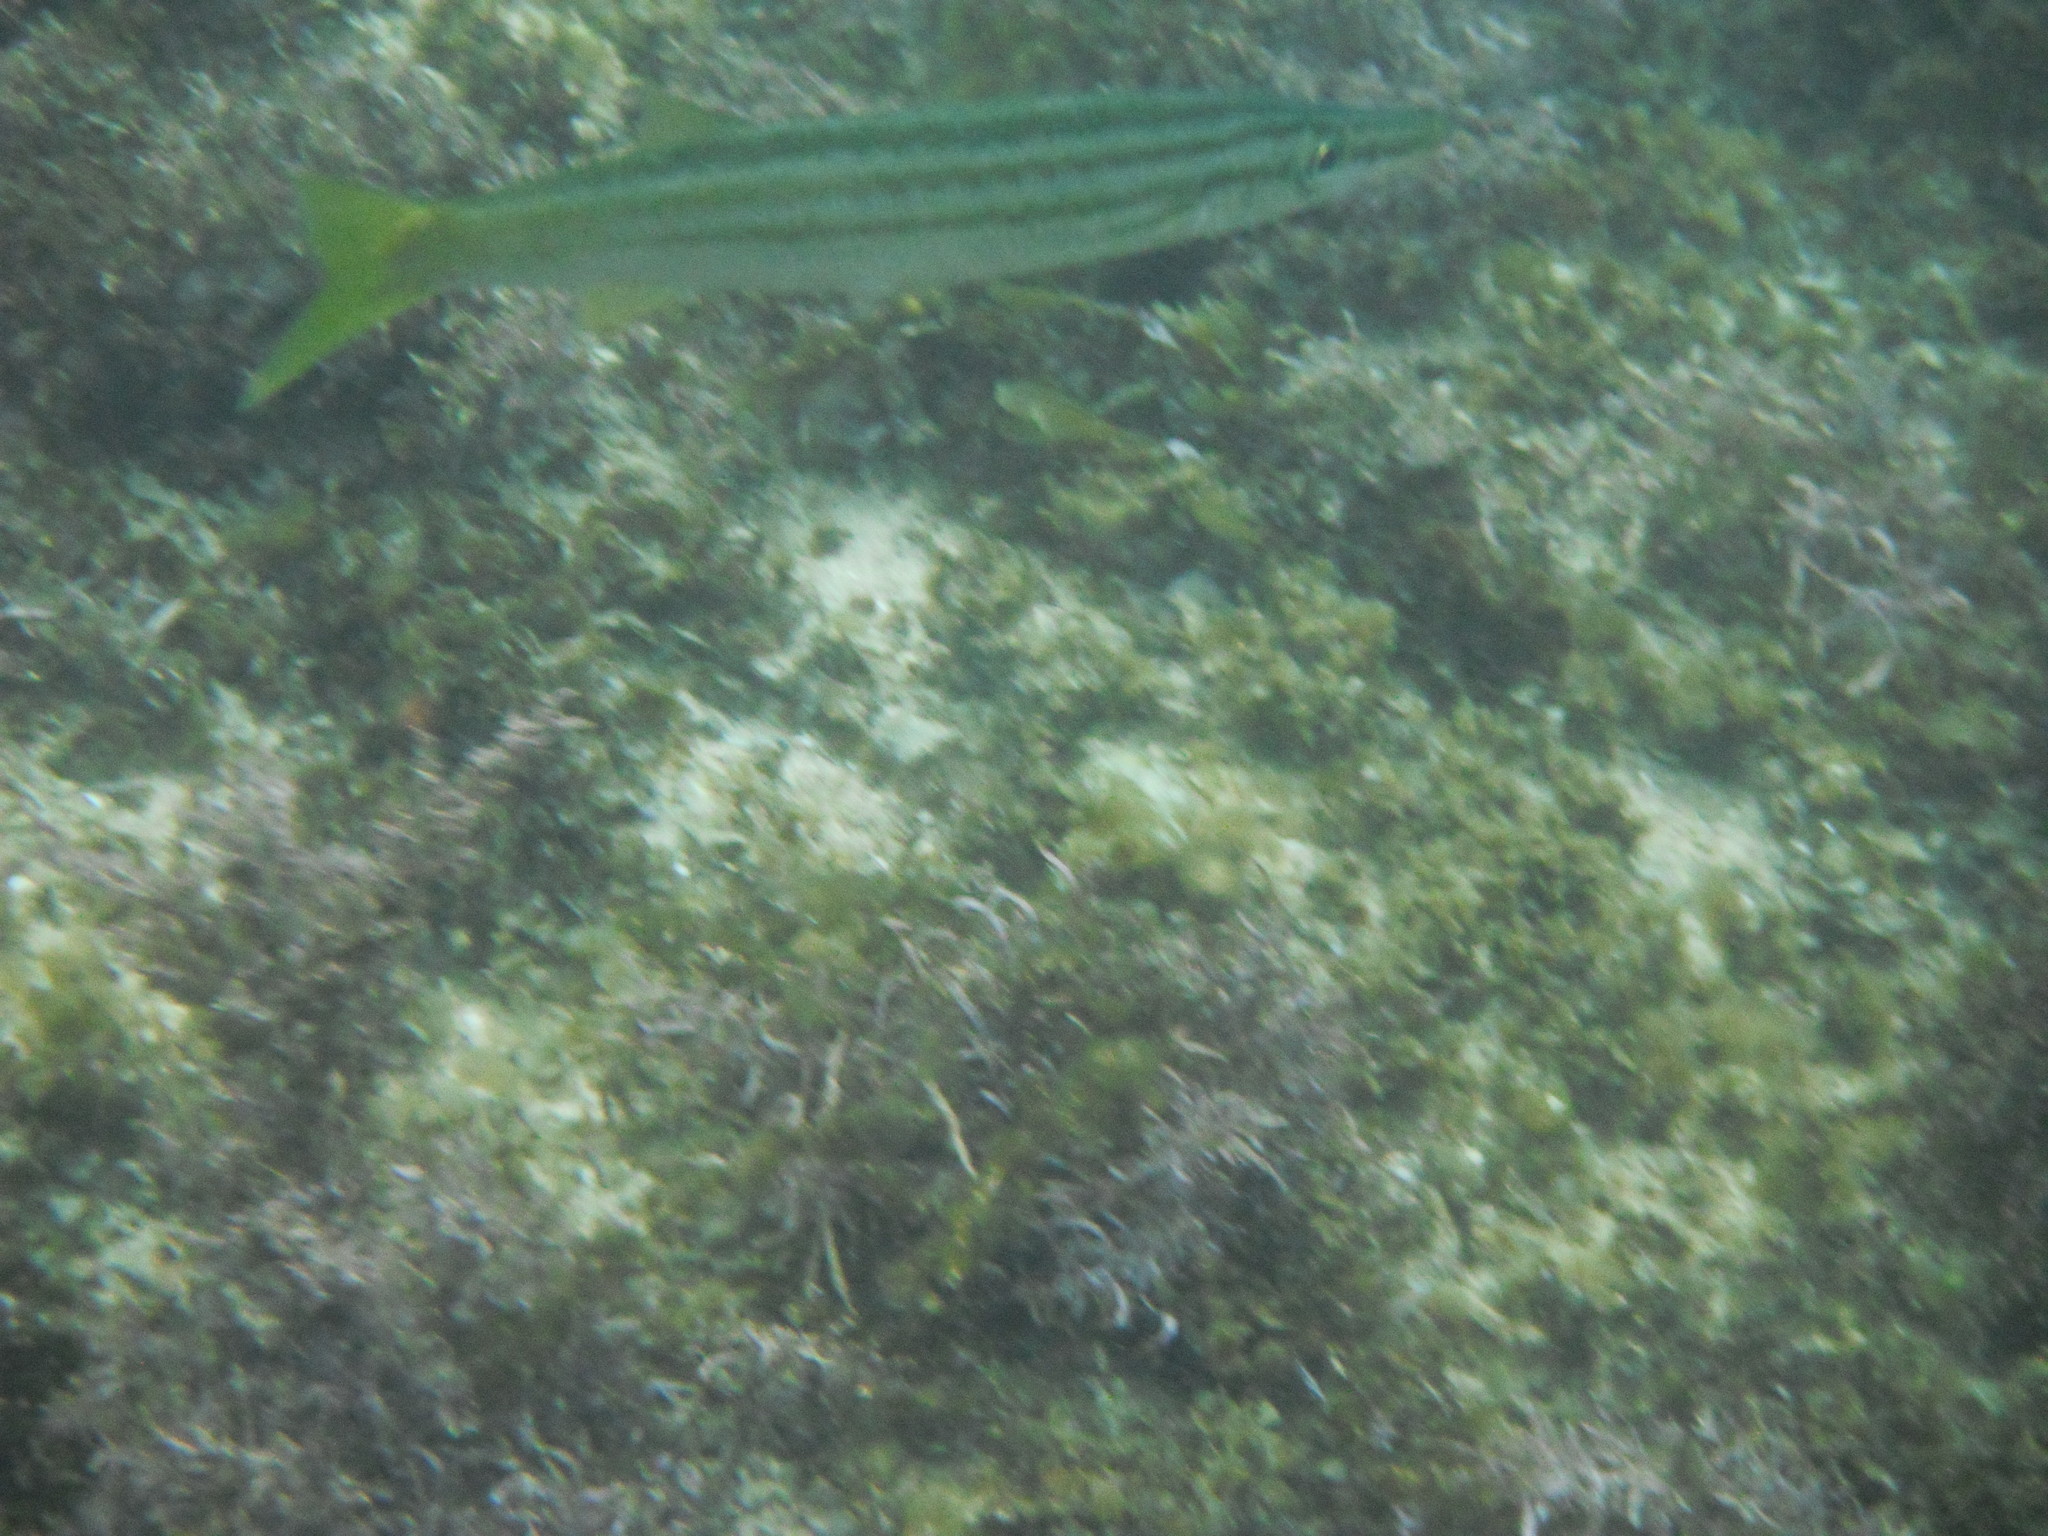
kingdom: Animalia
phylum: Chordata
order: Perciformes
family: Sphyraenidae
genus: Sphyraena
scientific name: Sphyraena obtusata
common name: Obtuse barracuda
